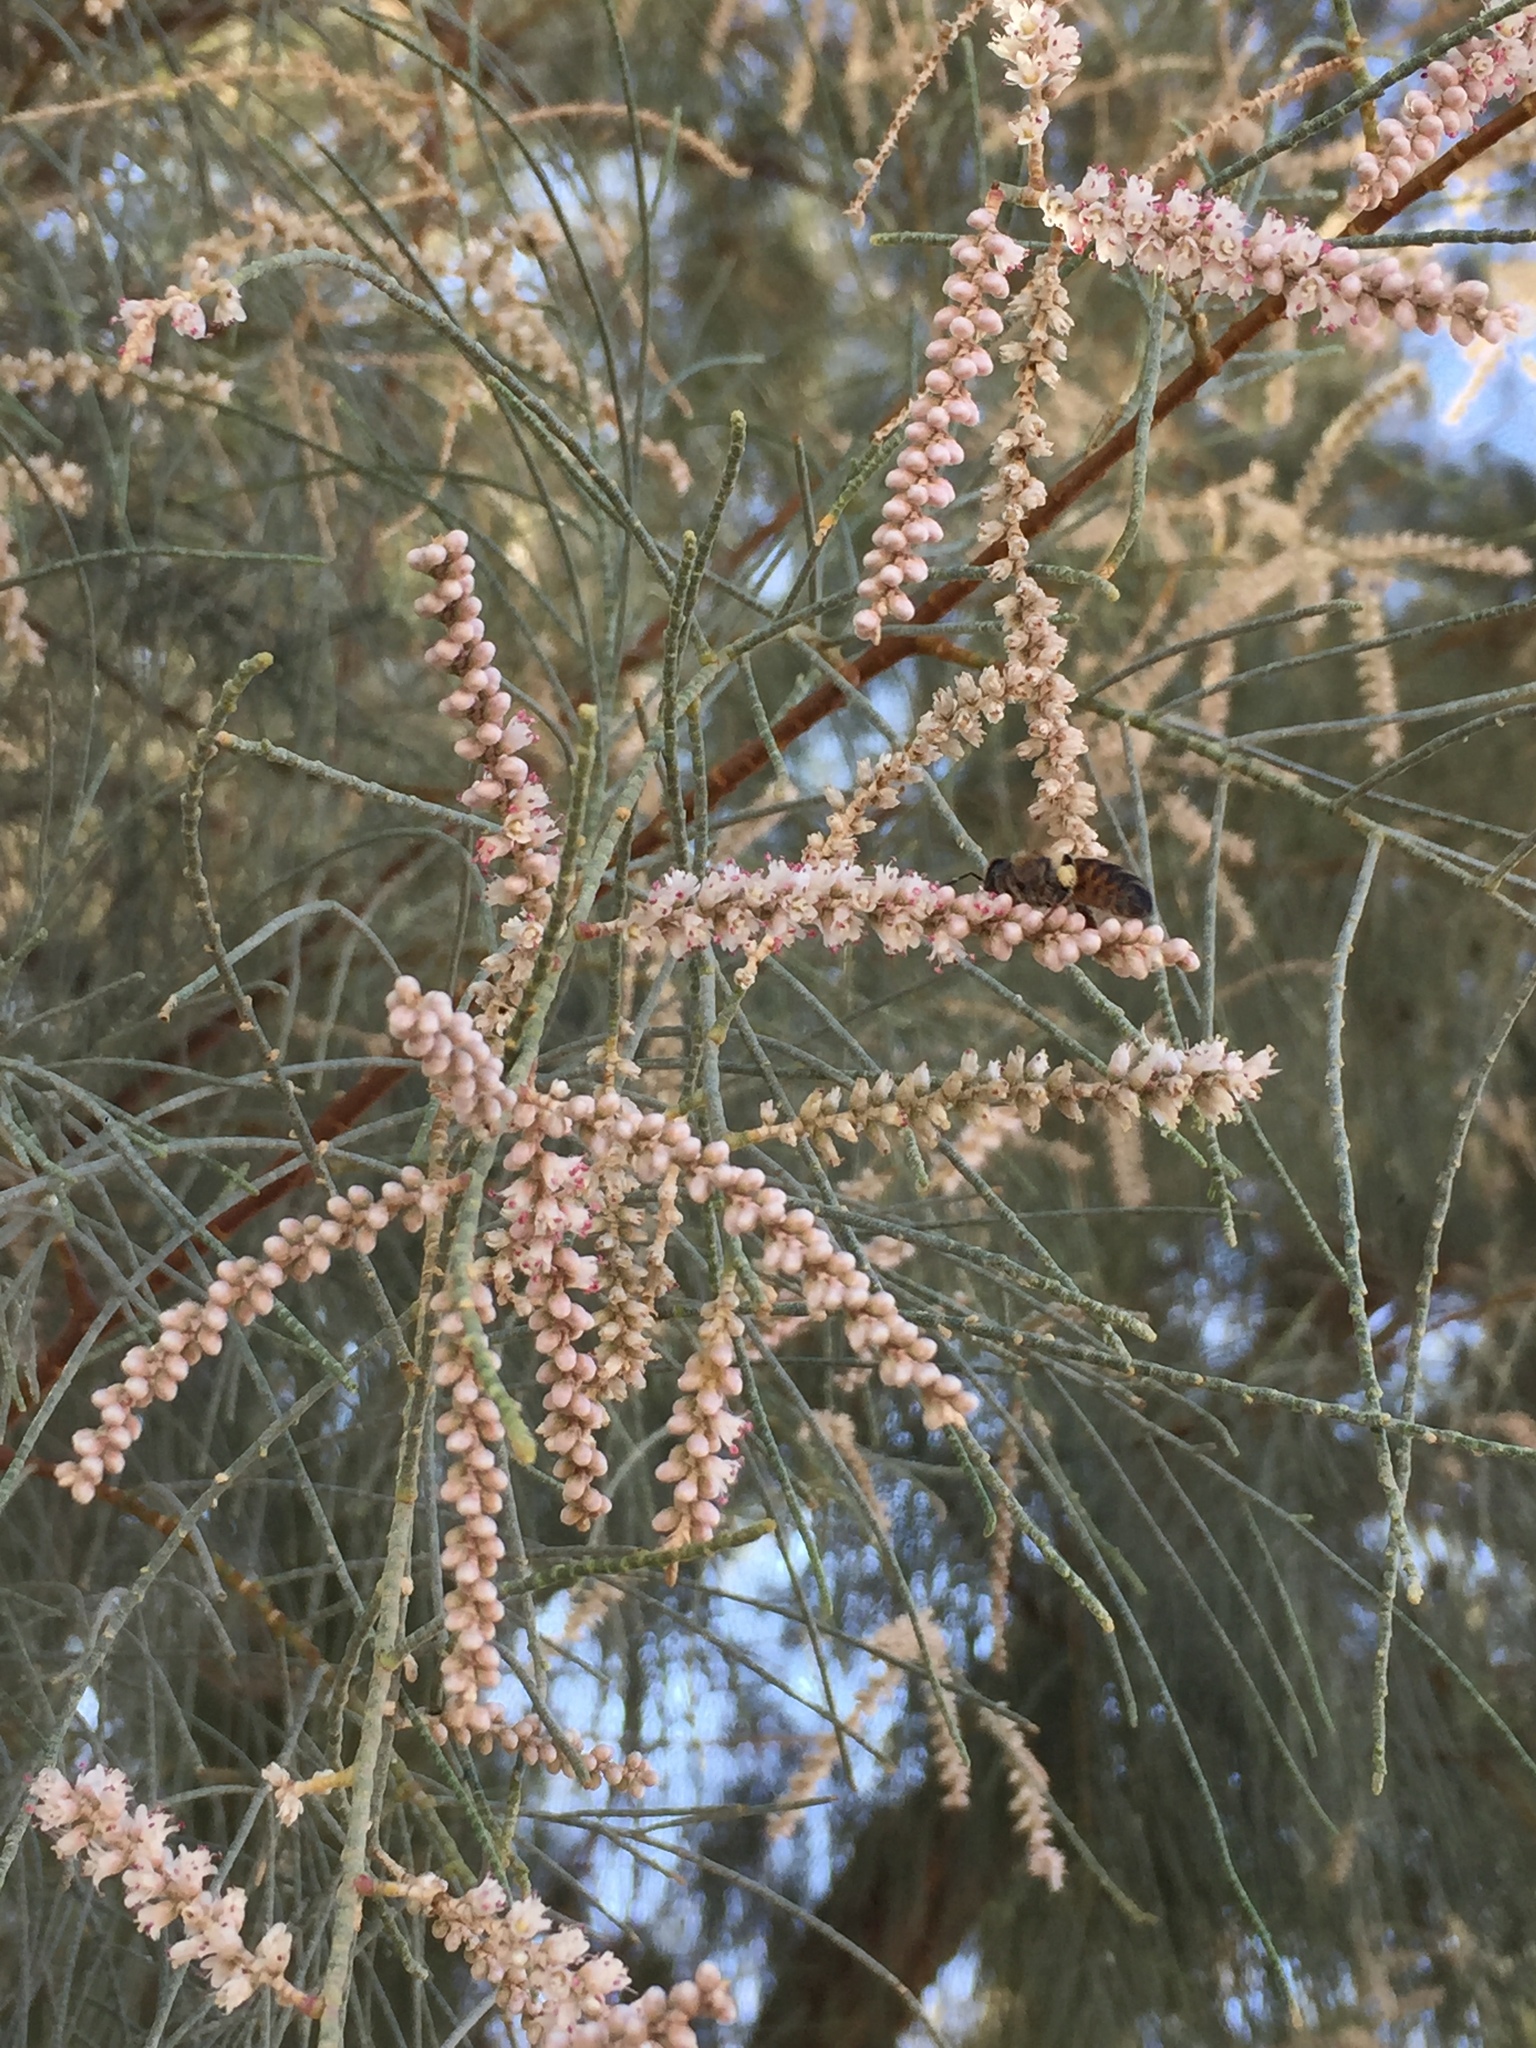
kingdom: Plantae
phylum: Tracheophyta
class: Magnoliopsida
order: Caryophyllales
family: Tamaricaceae
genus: Tamarix
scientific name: Tamarix aphylla
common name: Athel tamarisk
